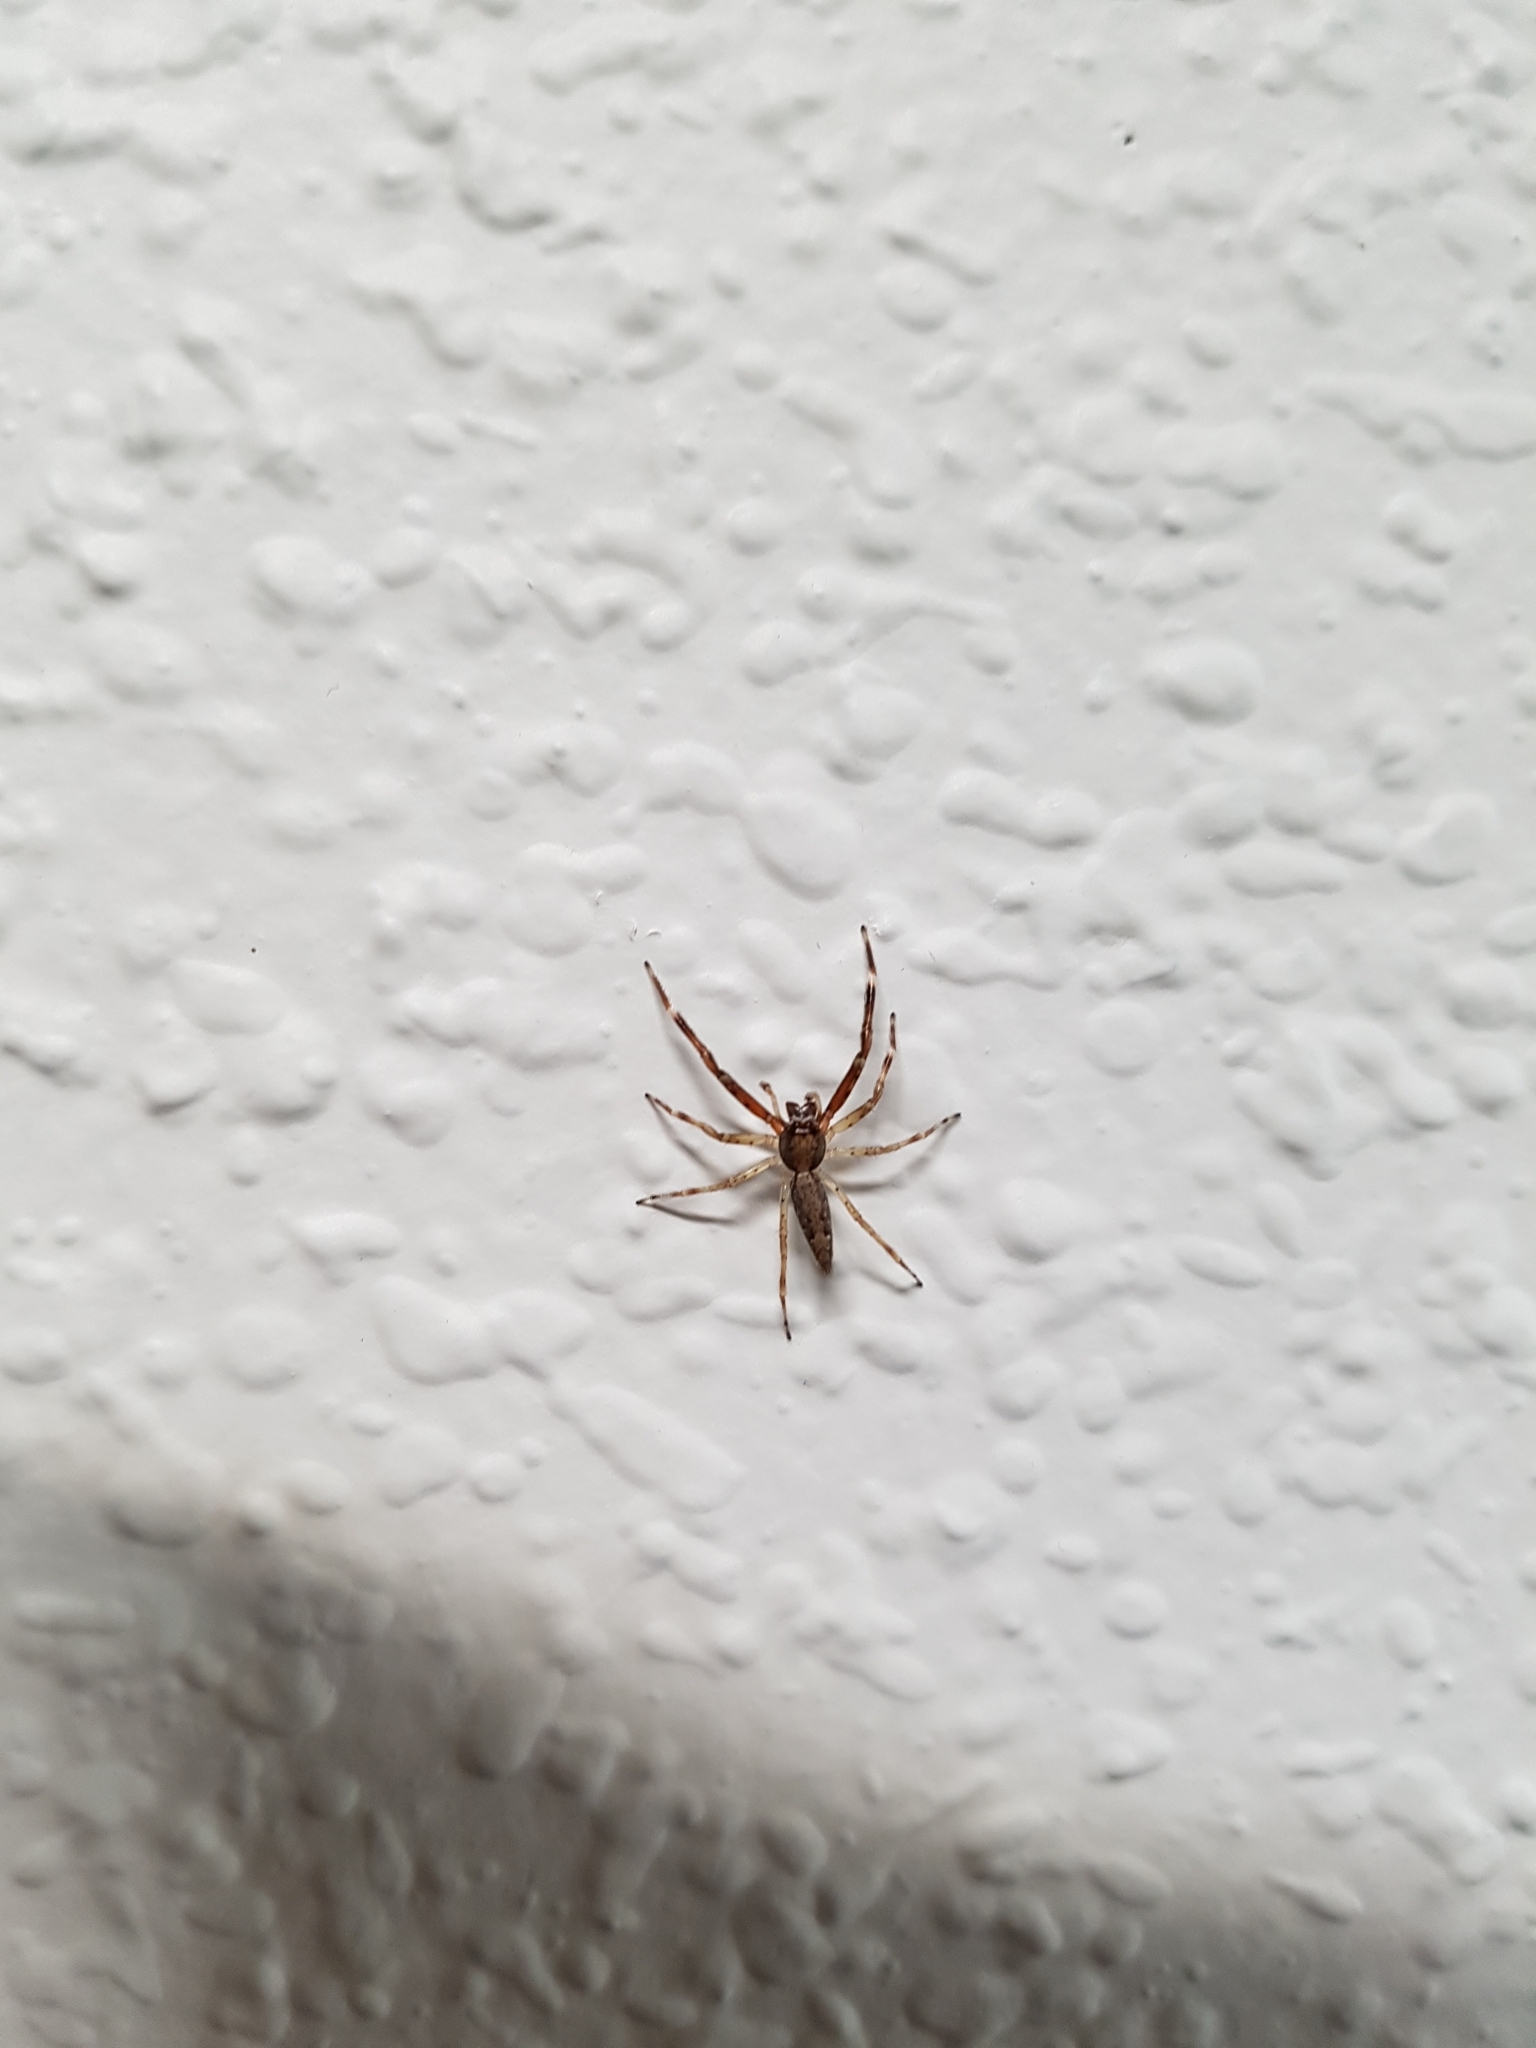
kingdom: Animalia
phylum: Arthropoda
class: Arachnida
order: Araneae
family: Salticidae
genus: Helpis
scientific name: Helpis minitabunda
